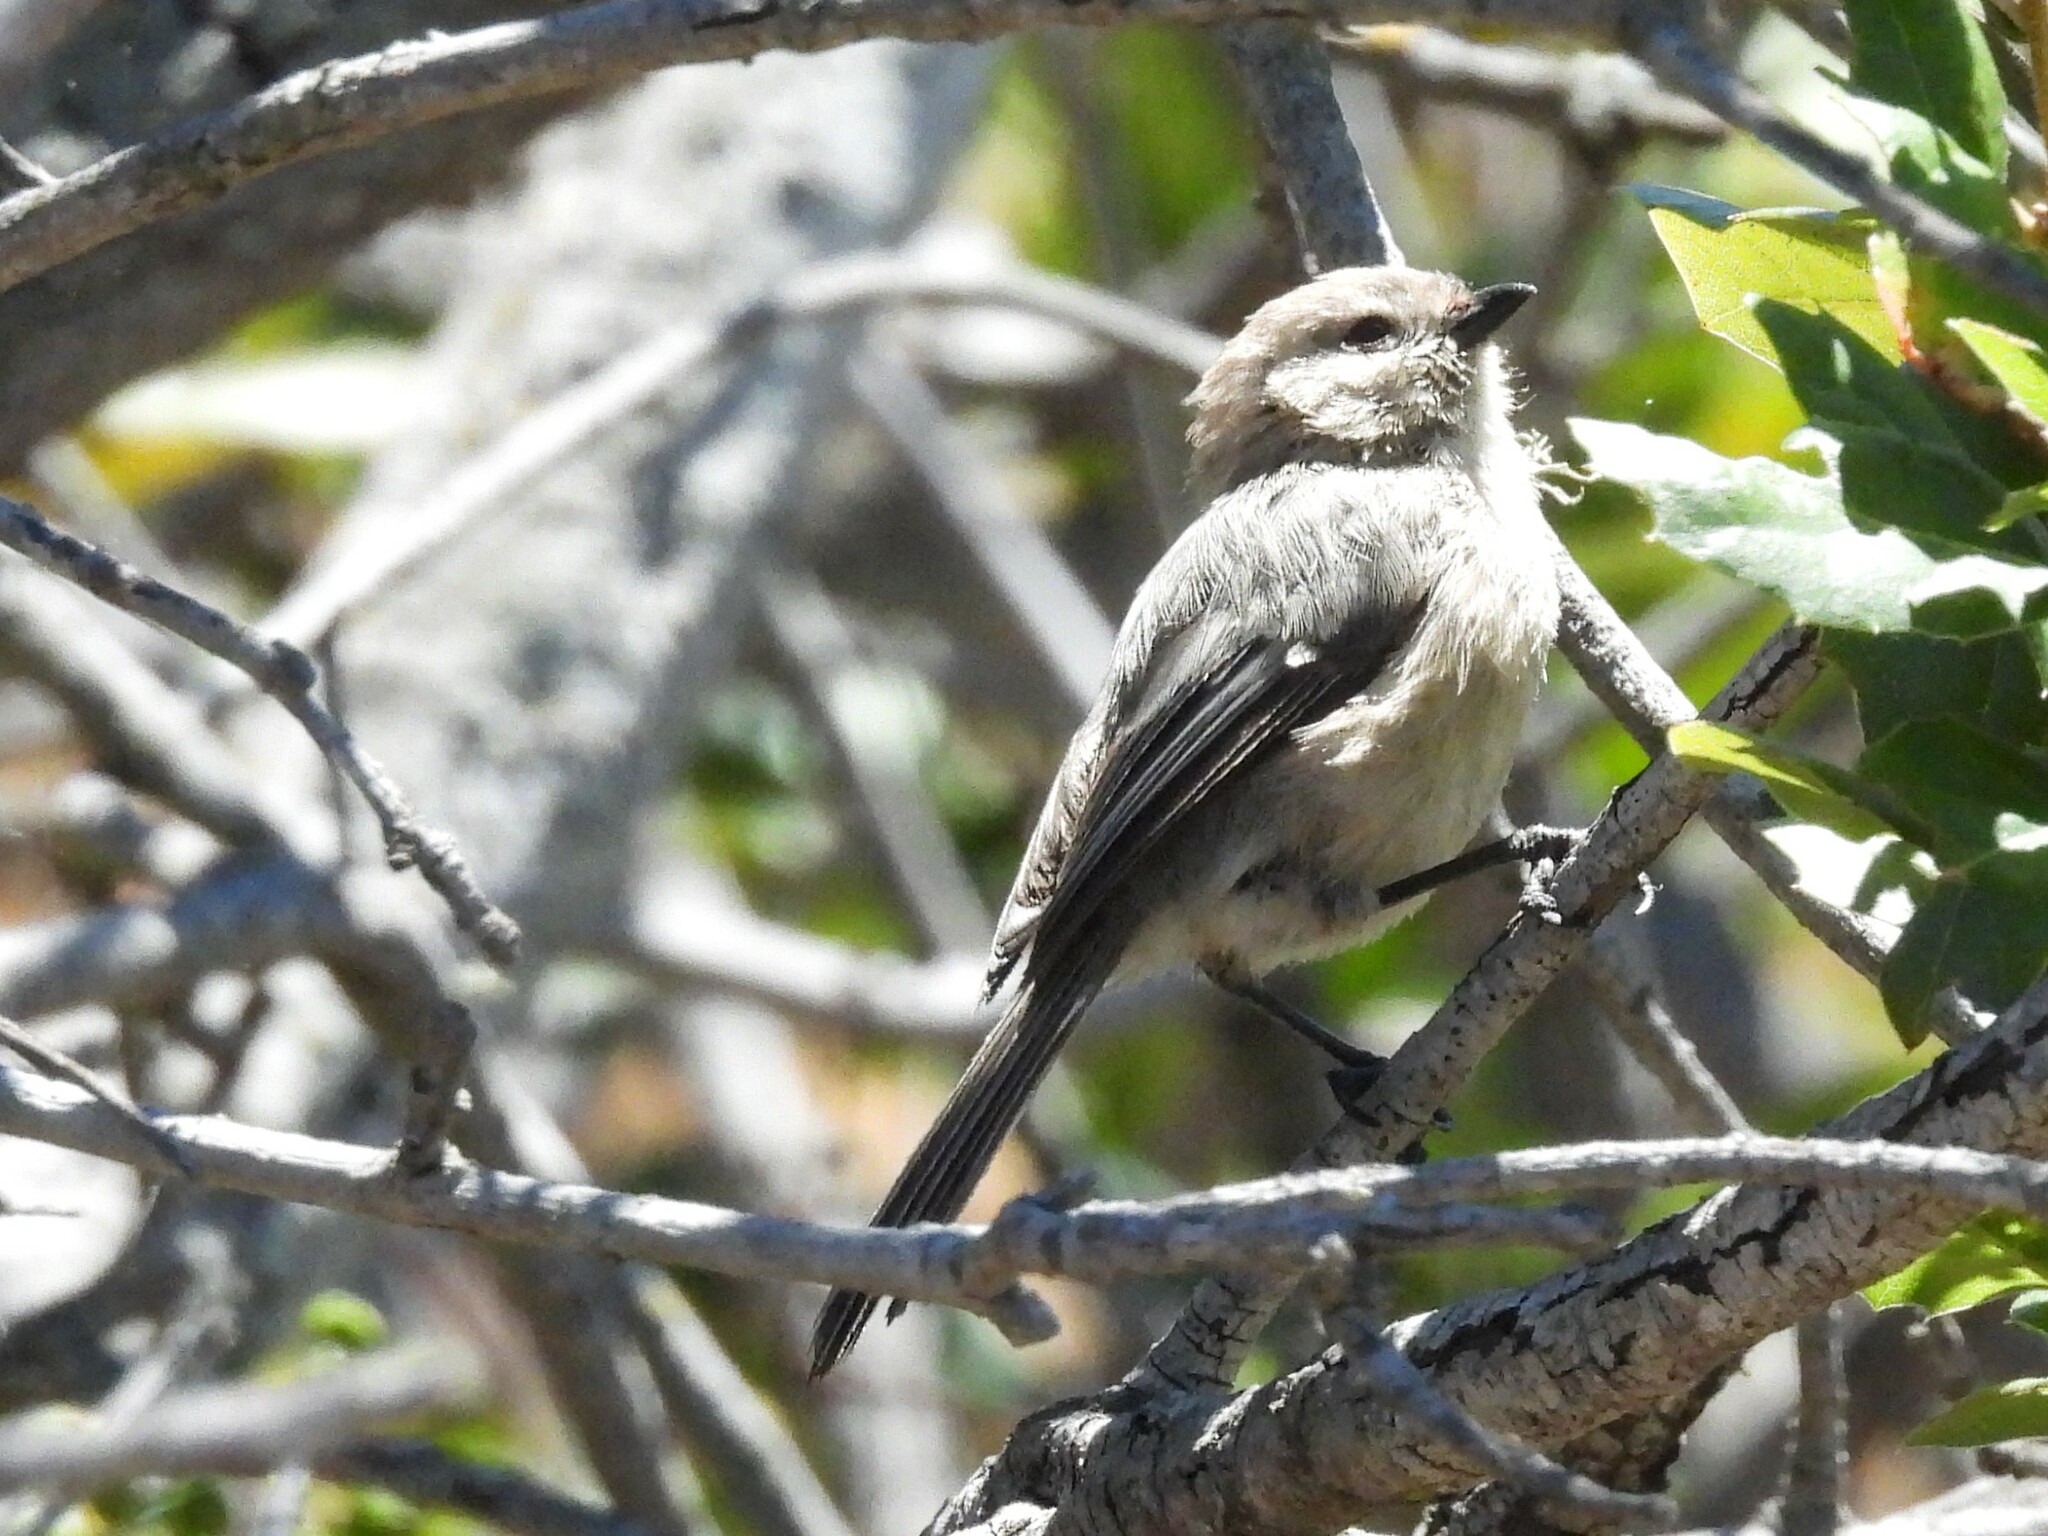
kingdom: Animalia
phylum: Chordata
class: Aves
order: Passeriformes
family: Aegithalidae
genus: Psaltriparus
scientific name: Psaltriparus minimus
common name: American bushtit
